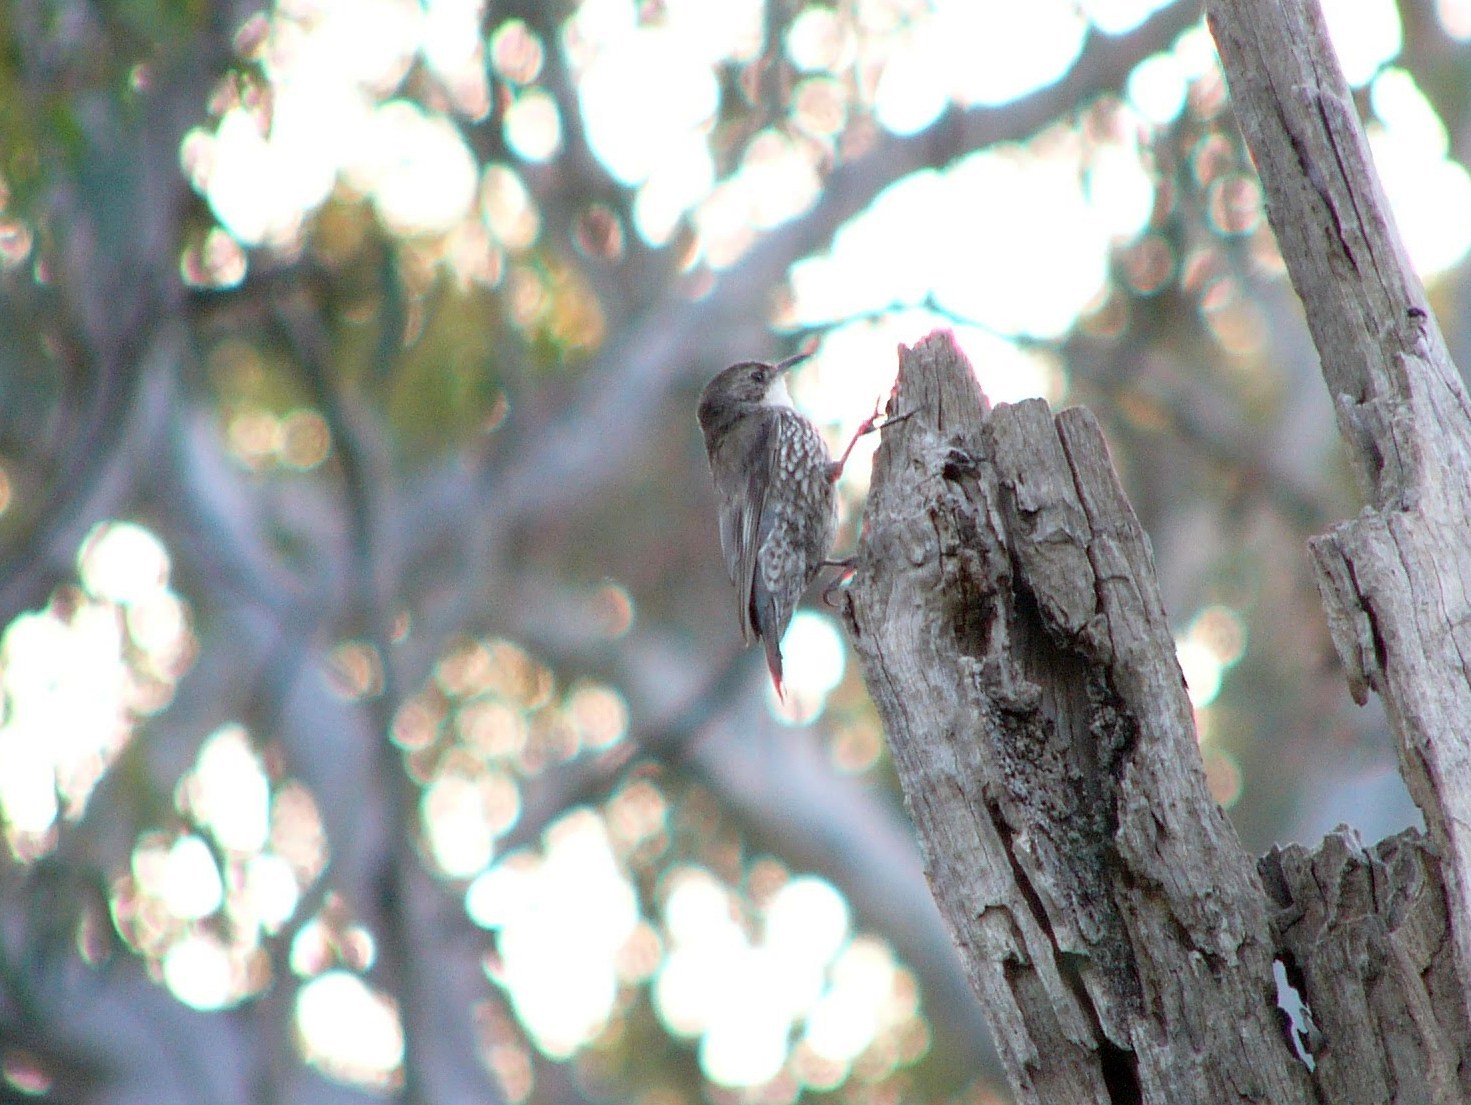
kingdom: Animalia
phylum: Chordata
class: Aves
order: Passeriformes
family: Climacteridae
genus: Cormobates
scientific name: Cormobates leucophaea
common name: White-throated treecreeper
